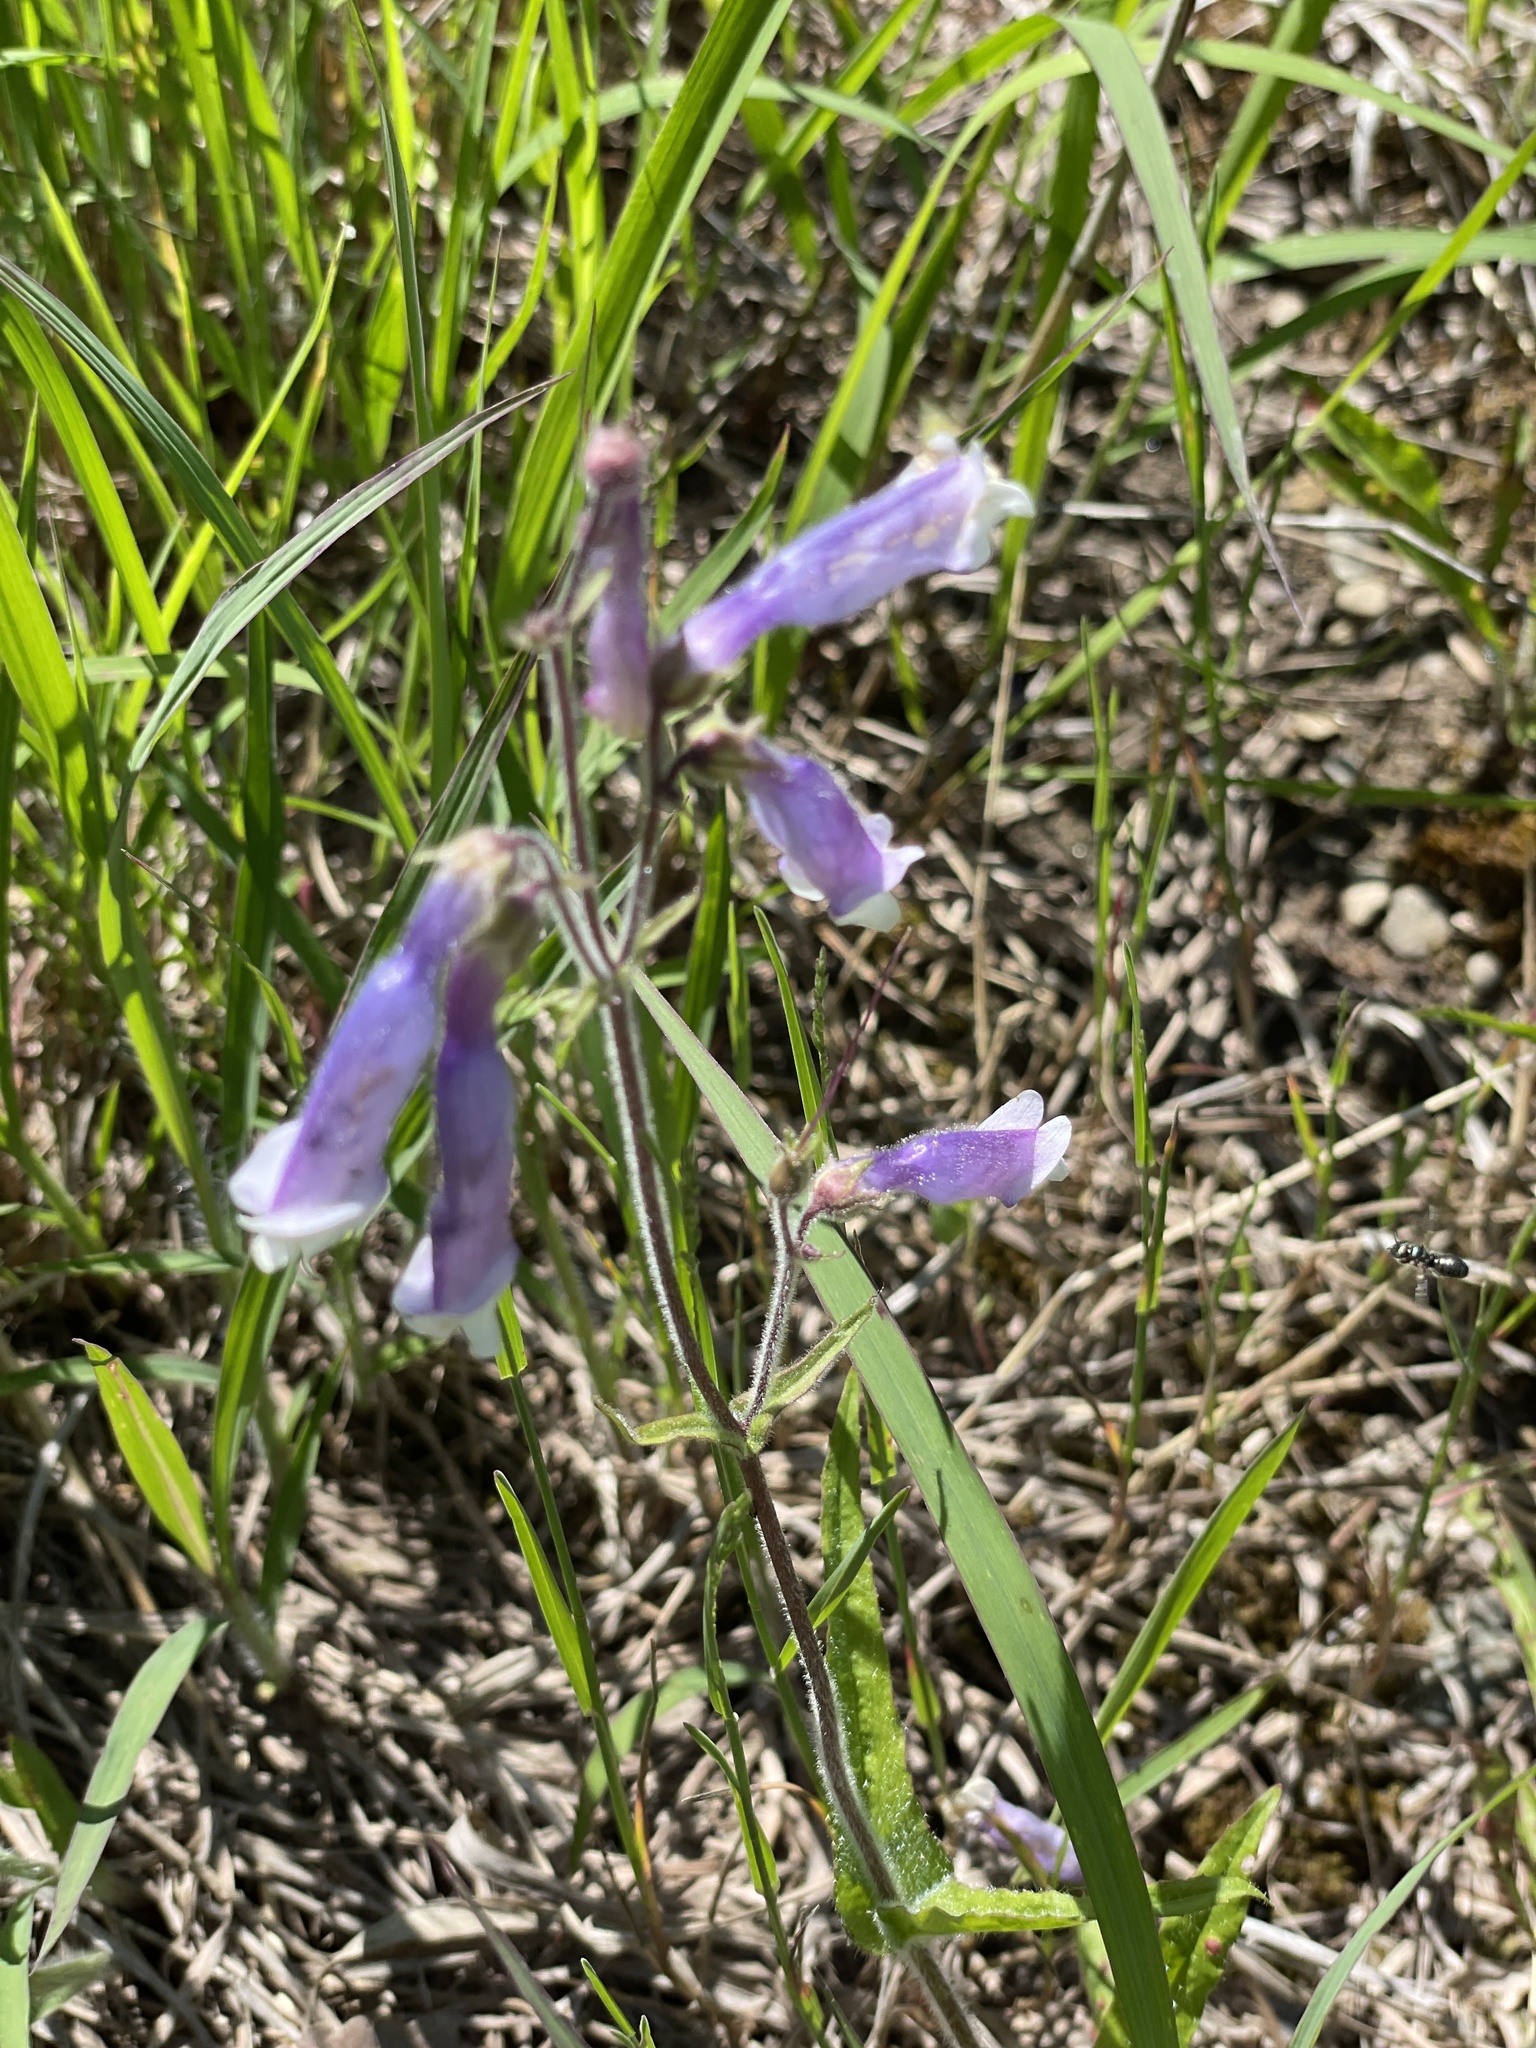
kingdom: Plantae
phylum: Tracheophyta
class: Magnoliopsida
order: Lamiales
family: Plantaginaceae
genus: Penstemon
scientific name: Penstemon hirsutus
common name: Hairy beardtongue
